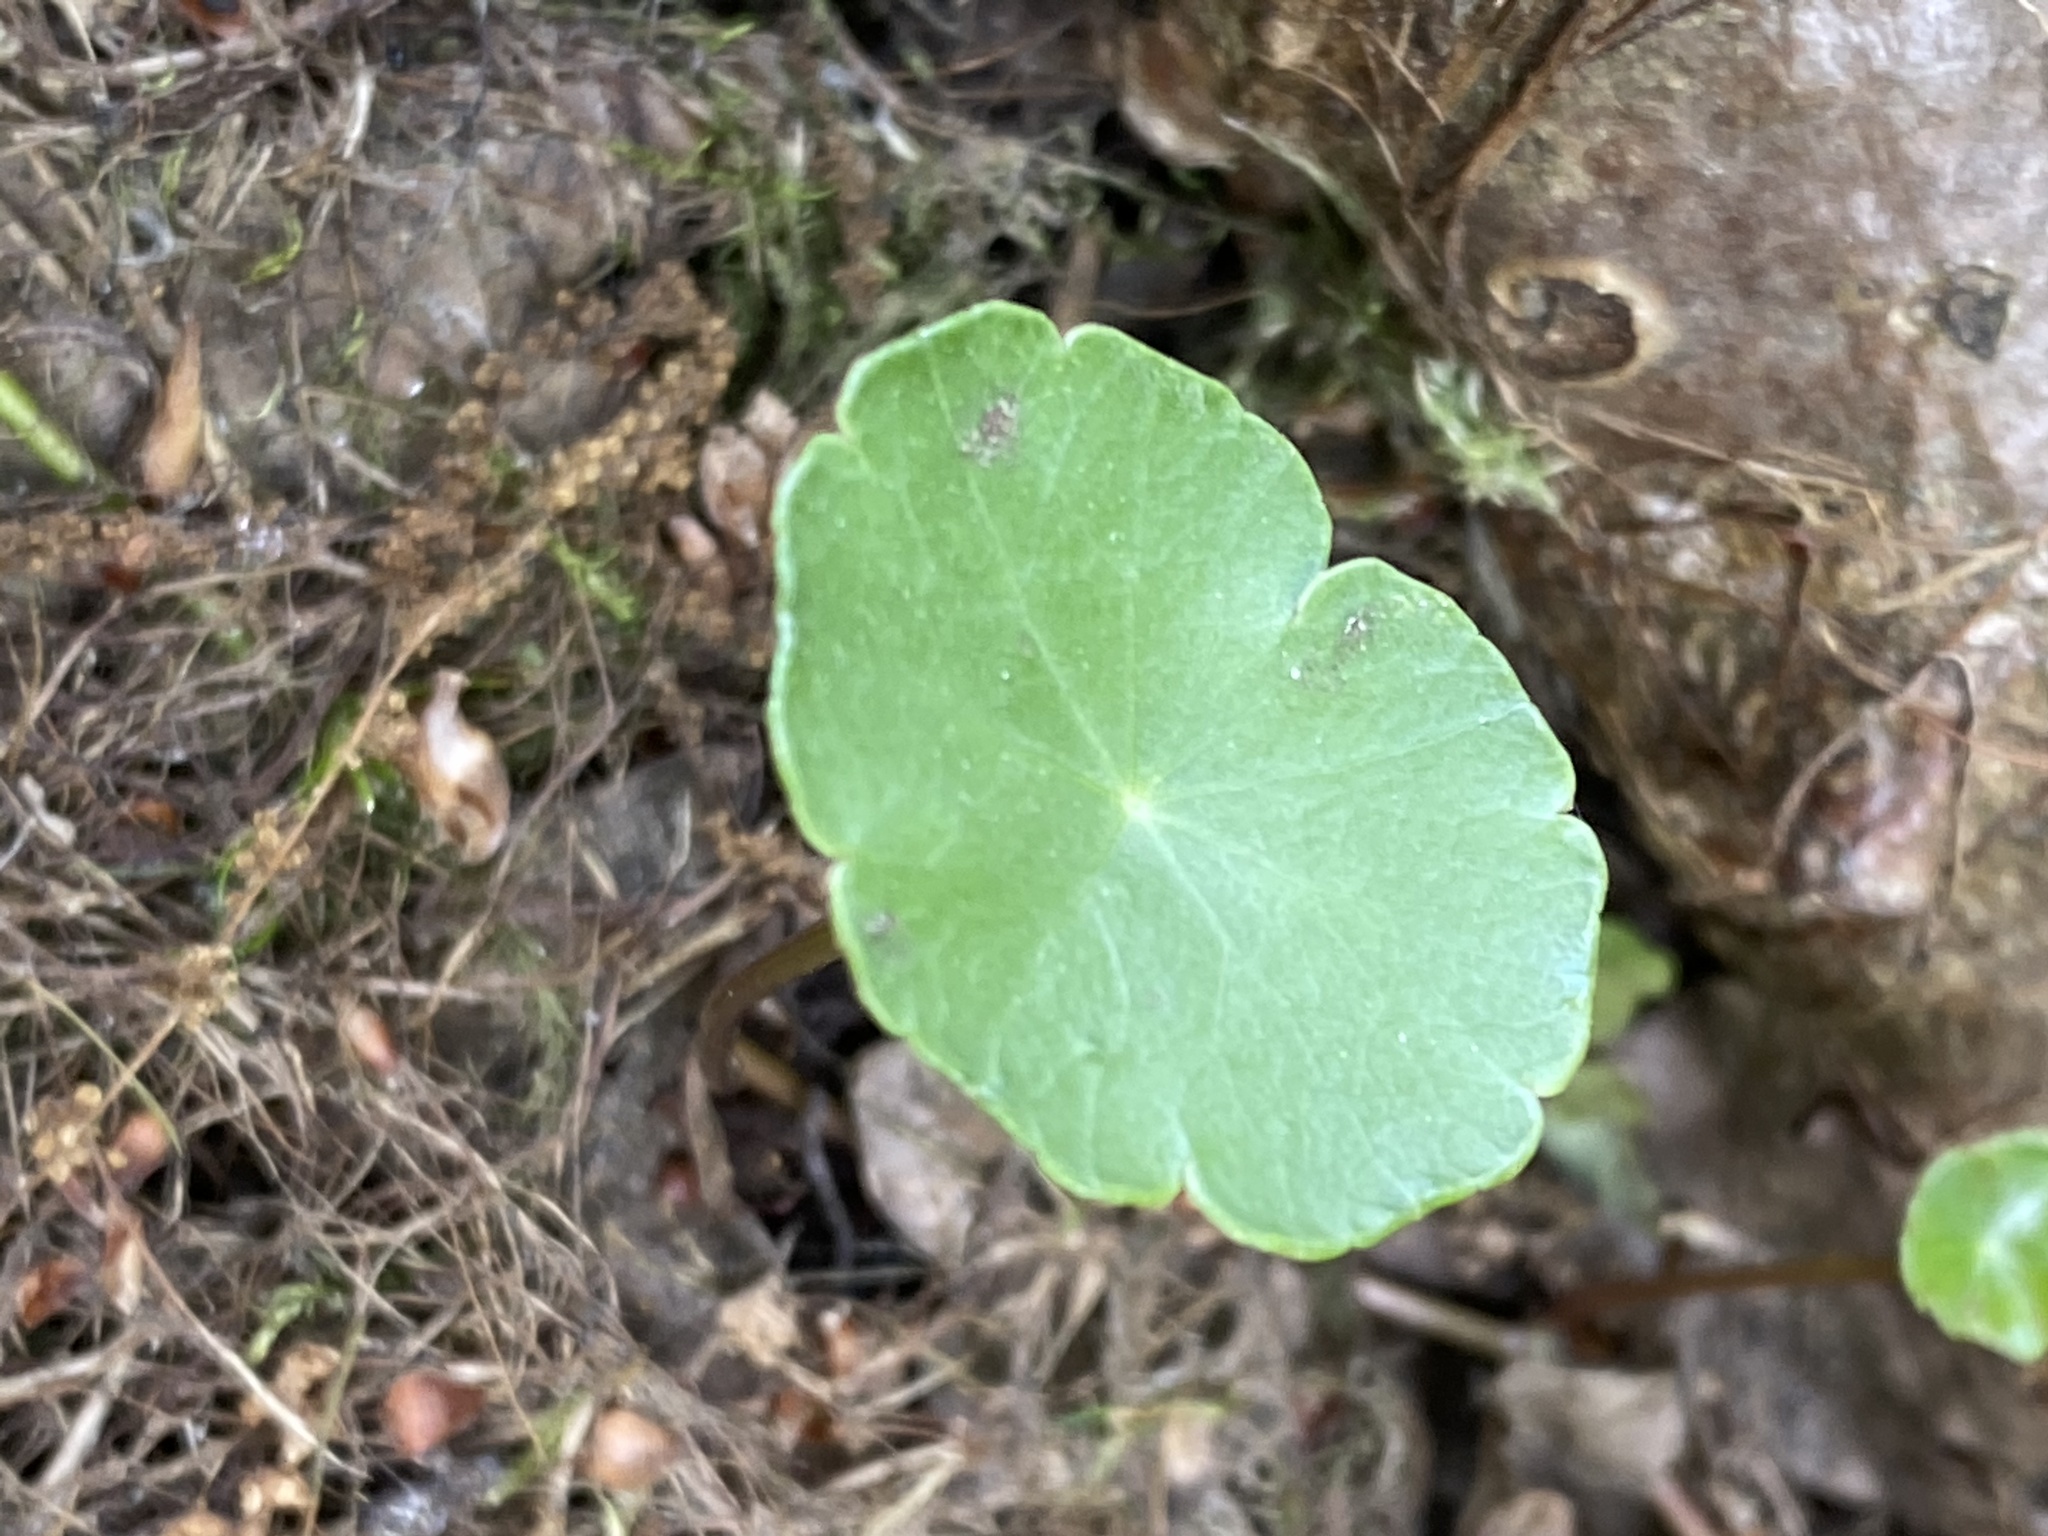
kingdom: Plantae
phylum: Tracheophyta
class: Magnoliopsida
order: Apiales
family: Araliaceae
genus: Hydrocotyle
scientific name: Hydrocotyle vulgaris
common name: Marsh pennywort
